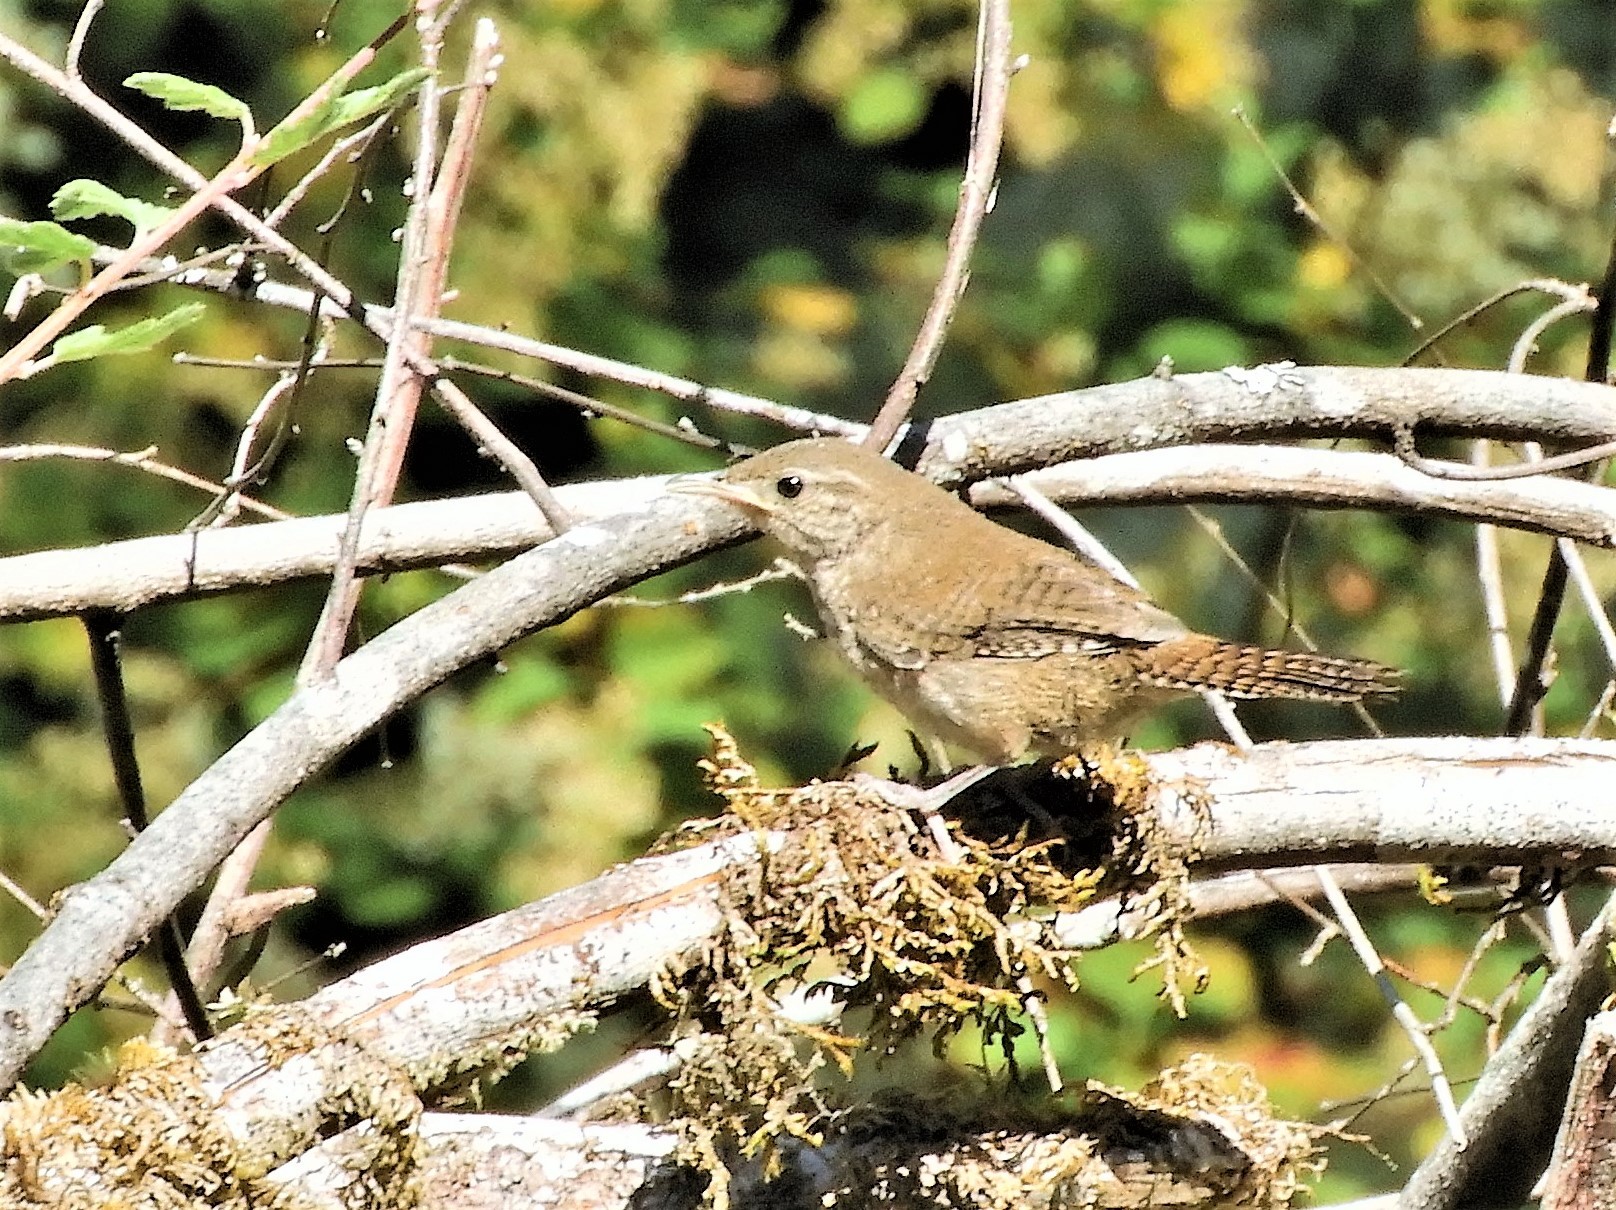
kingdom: Animalia
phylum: Chordata
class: Aves
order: Passeriformes
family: Troglodytidae
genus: Troglodytes
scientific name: Troglodytes aedon
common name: House wren
